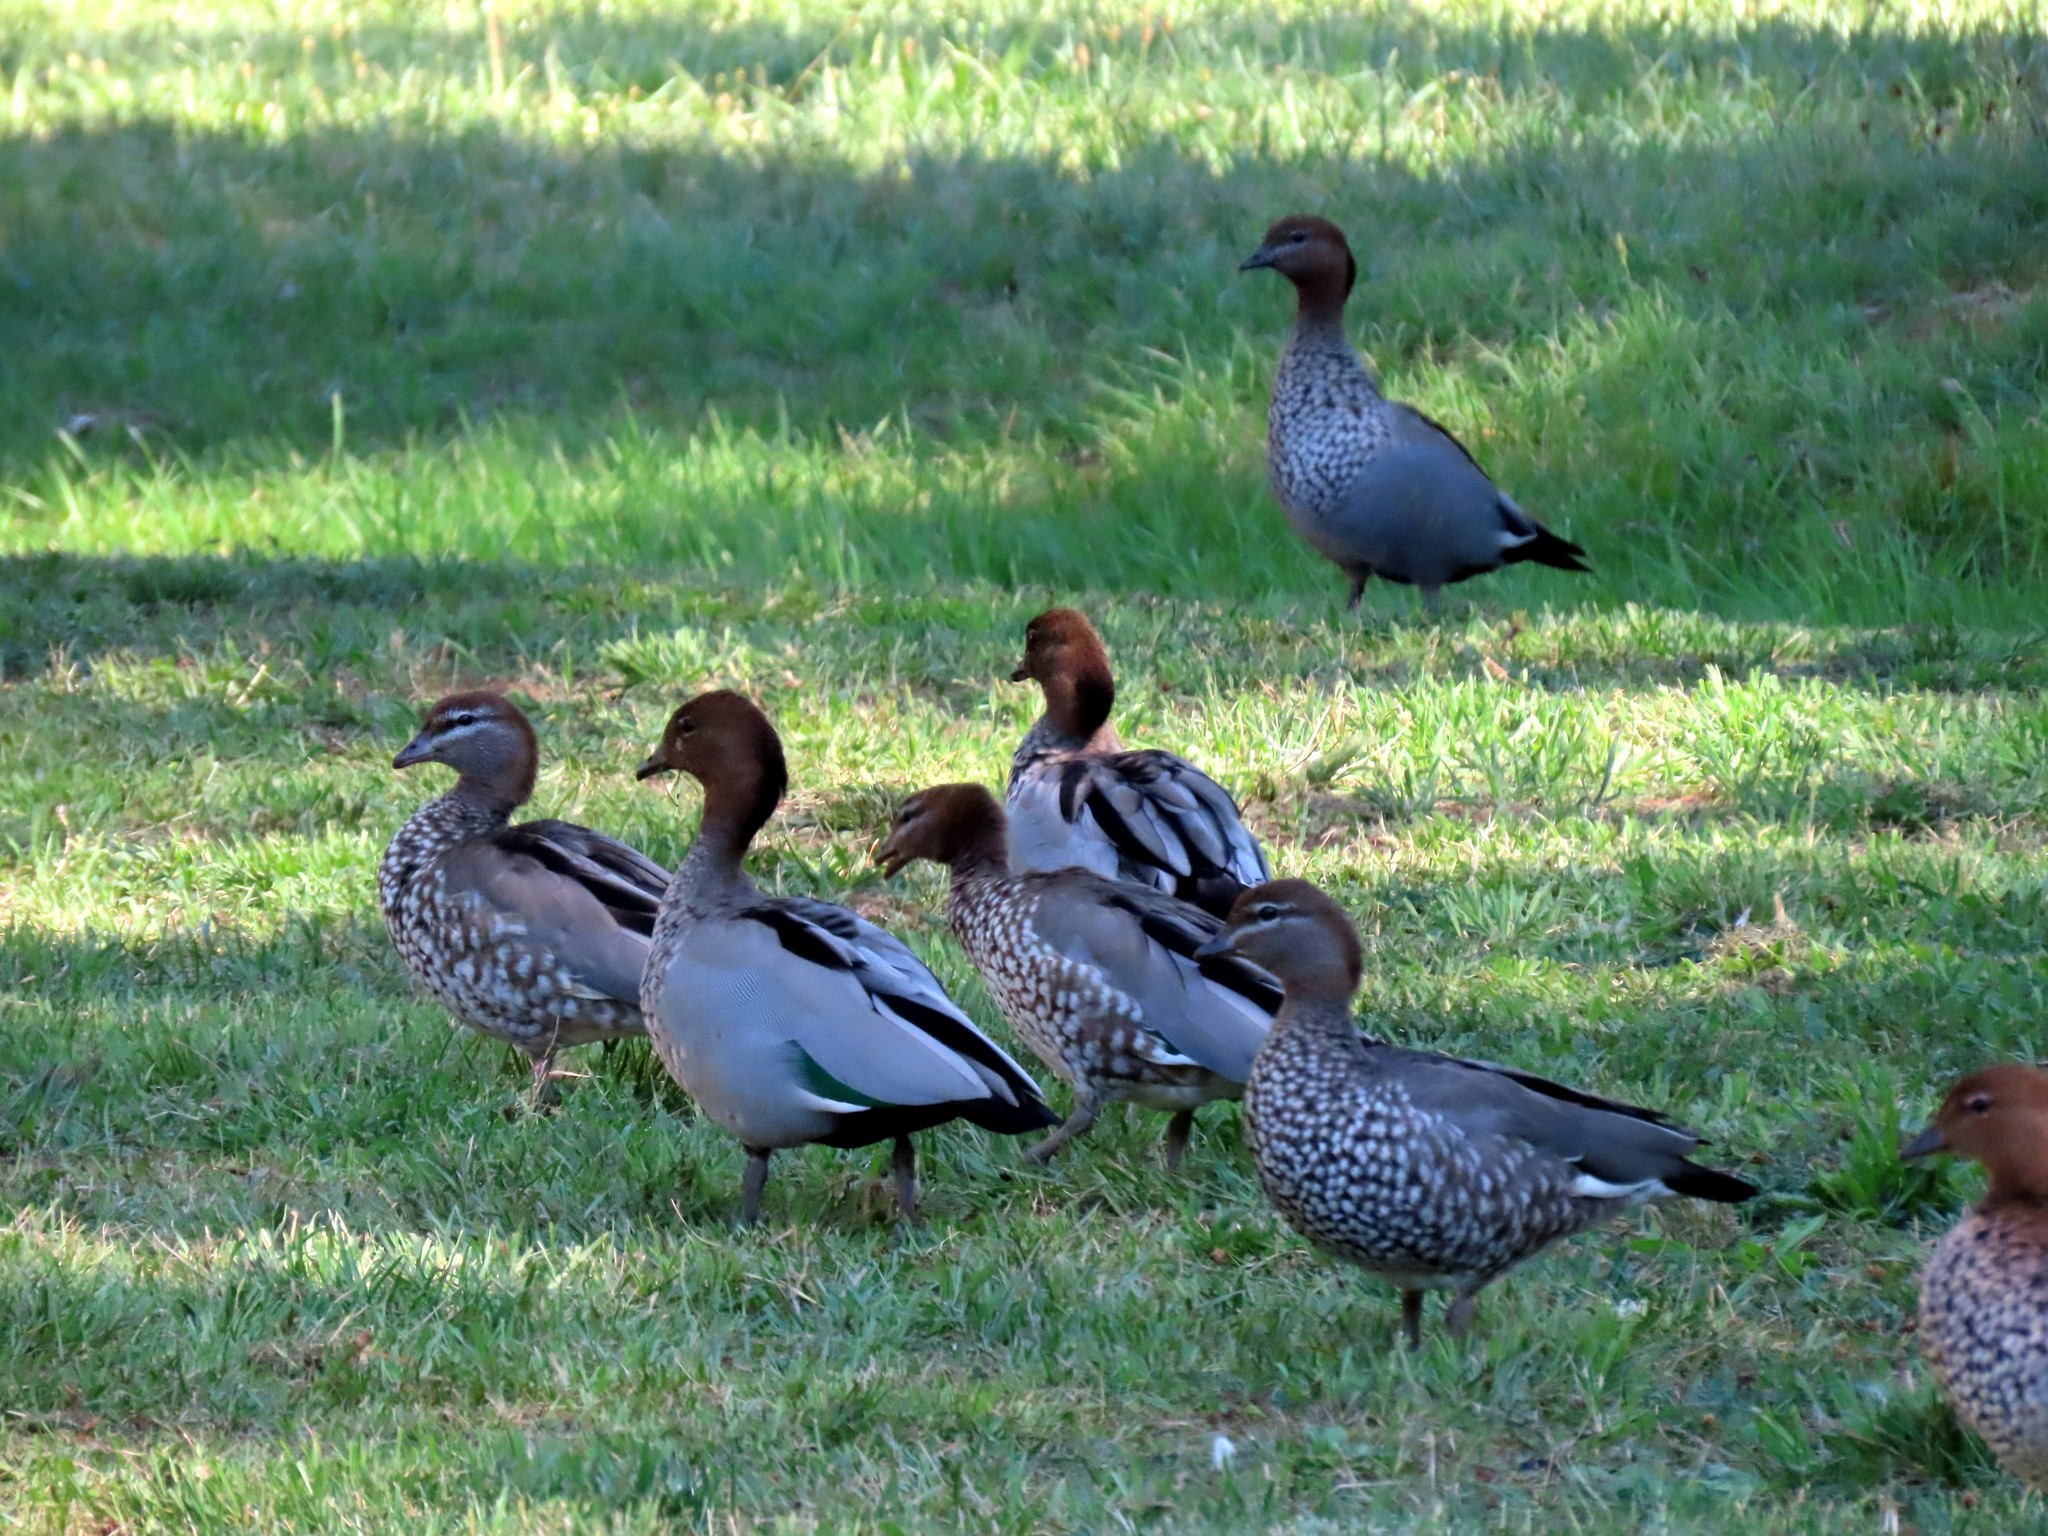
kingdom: Animalia
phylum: Chordata
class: Aves
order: Anseriformes
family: Anatidae
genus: Chenonetta
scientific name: Chenonetta jubata
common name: Maned duck
